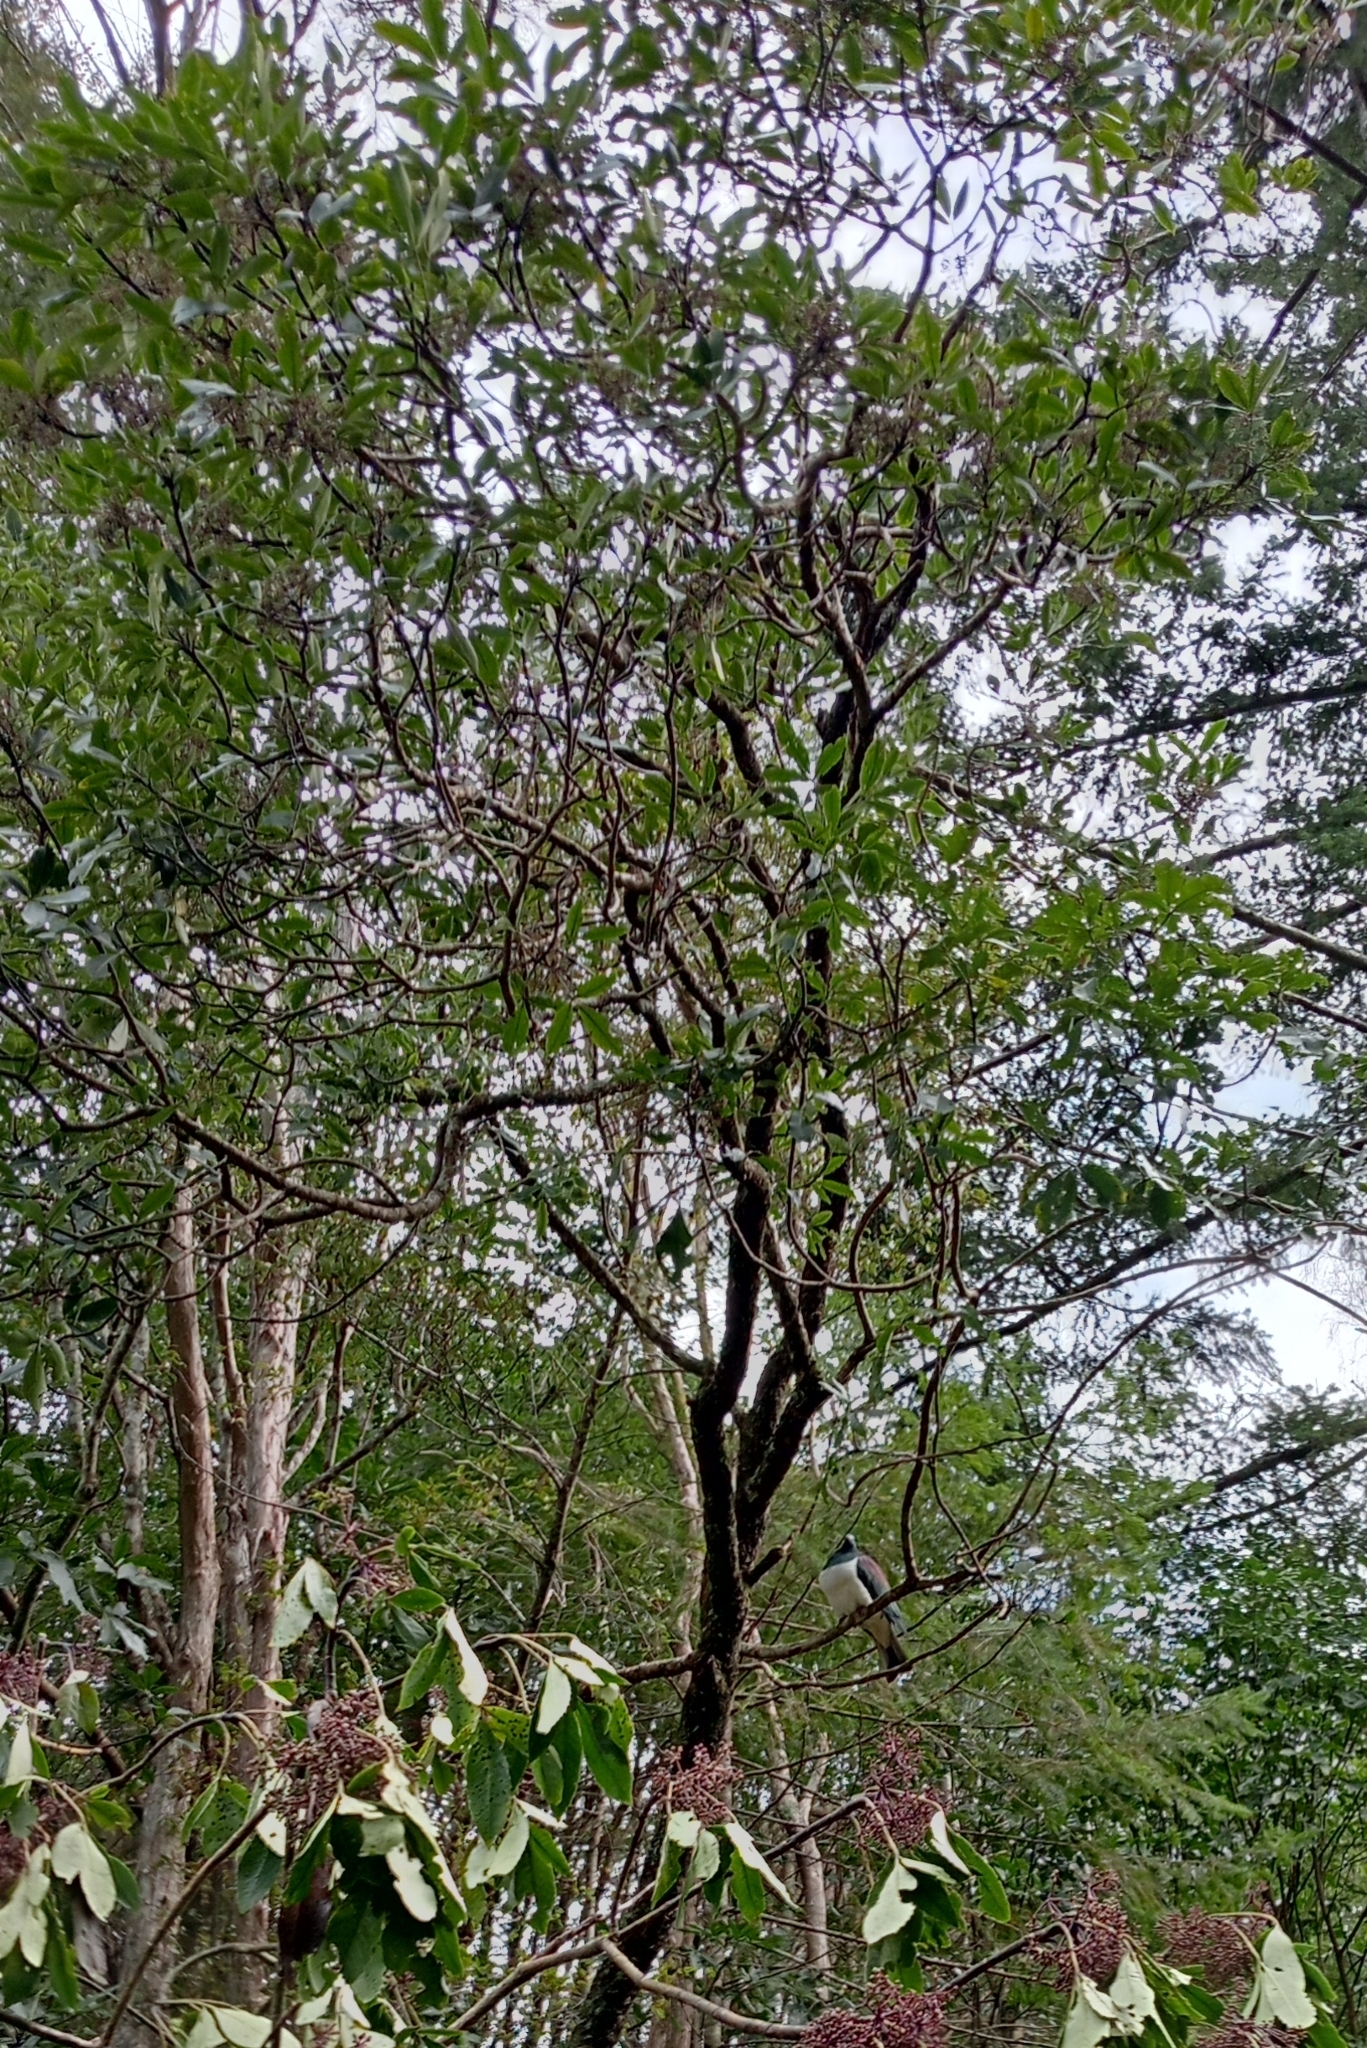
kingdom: Animalia
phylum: Chordata
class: Aves
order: Columbiformes
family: Columbidae
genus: Hemiphaga
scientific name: Hemiphaga novaeseelandiae
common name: New zealand pigeon
